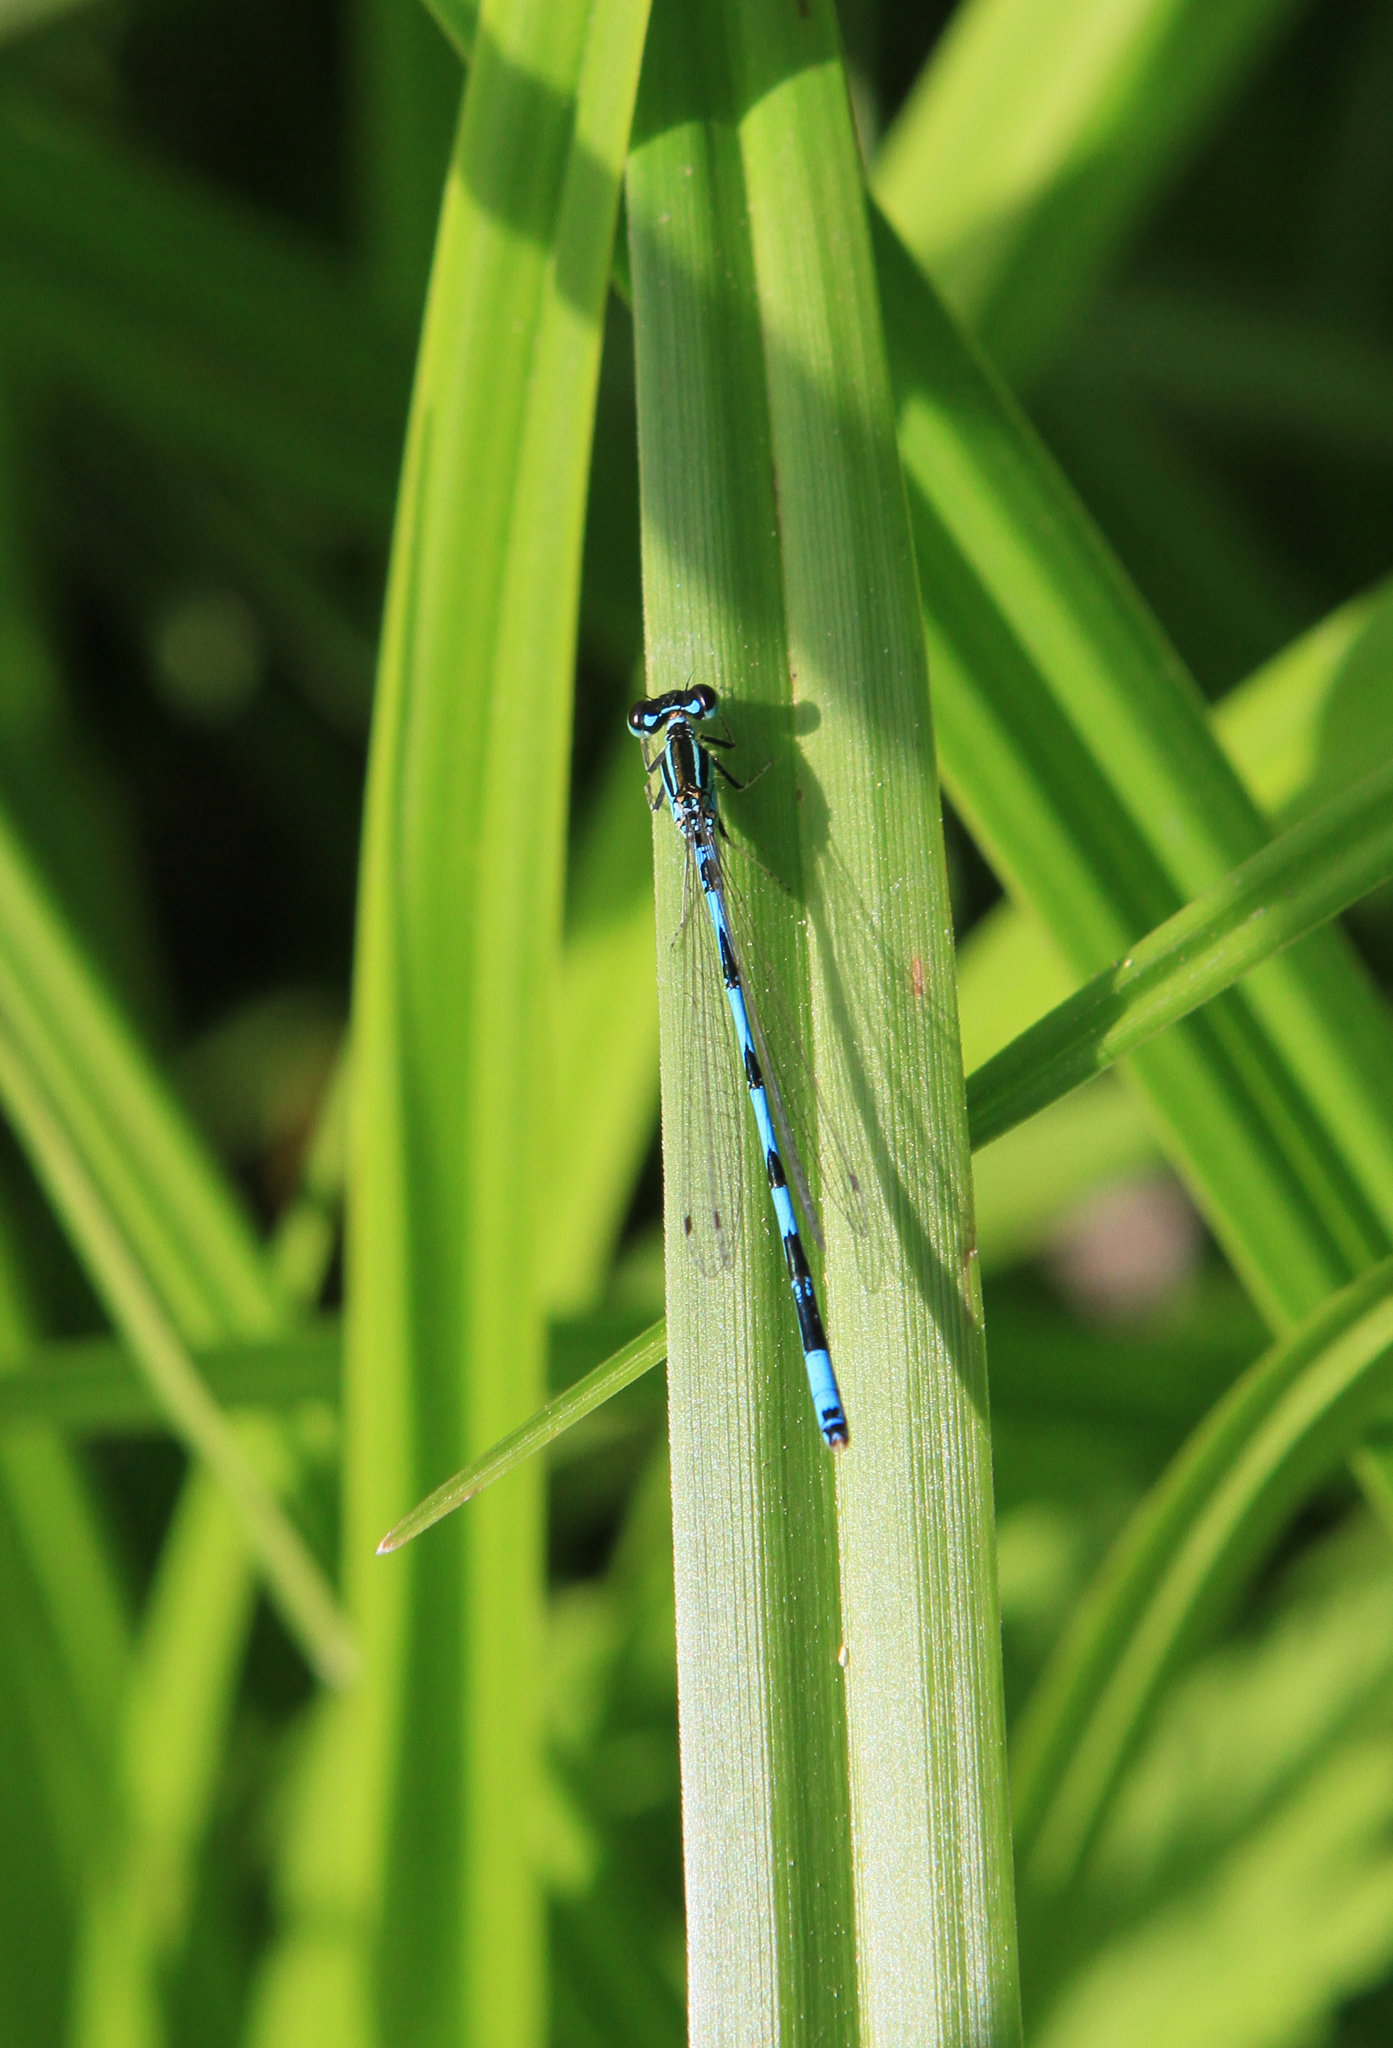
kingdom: Animalia
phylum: Arthropoda
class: Insecta
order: Odonata
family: Coenagrionidae
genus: Coenagrion
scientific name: Coenagrion ecornutum
